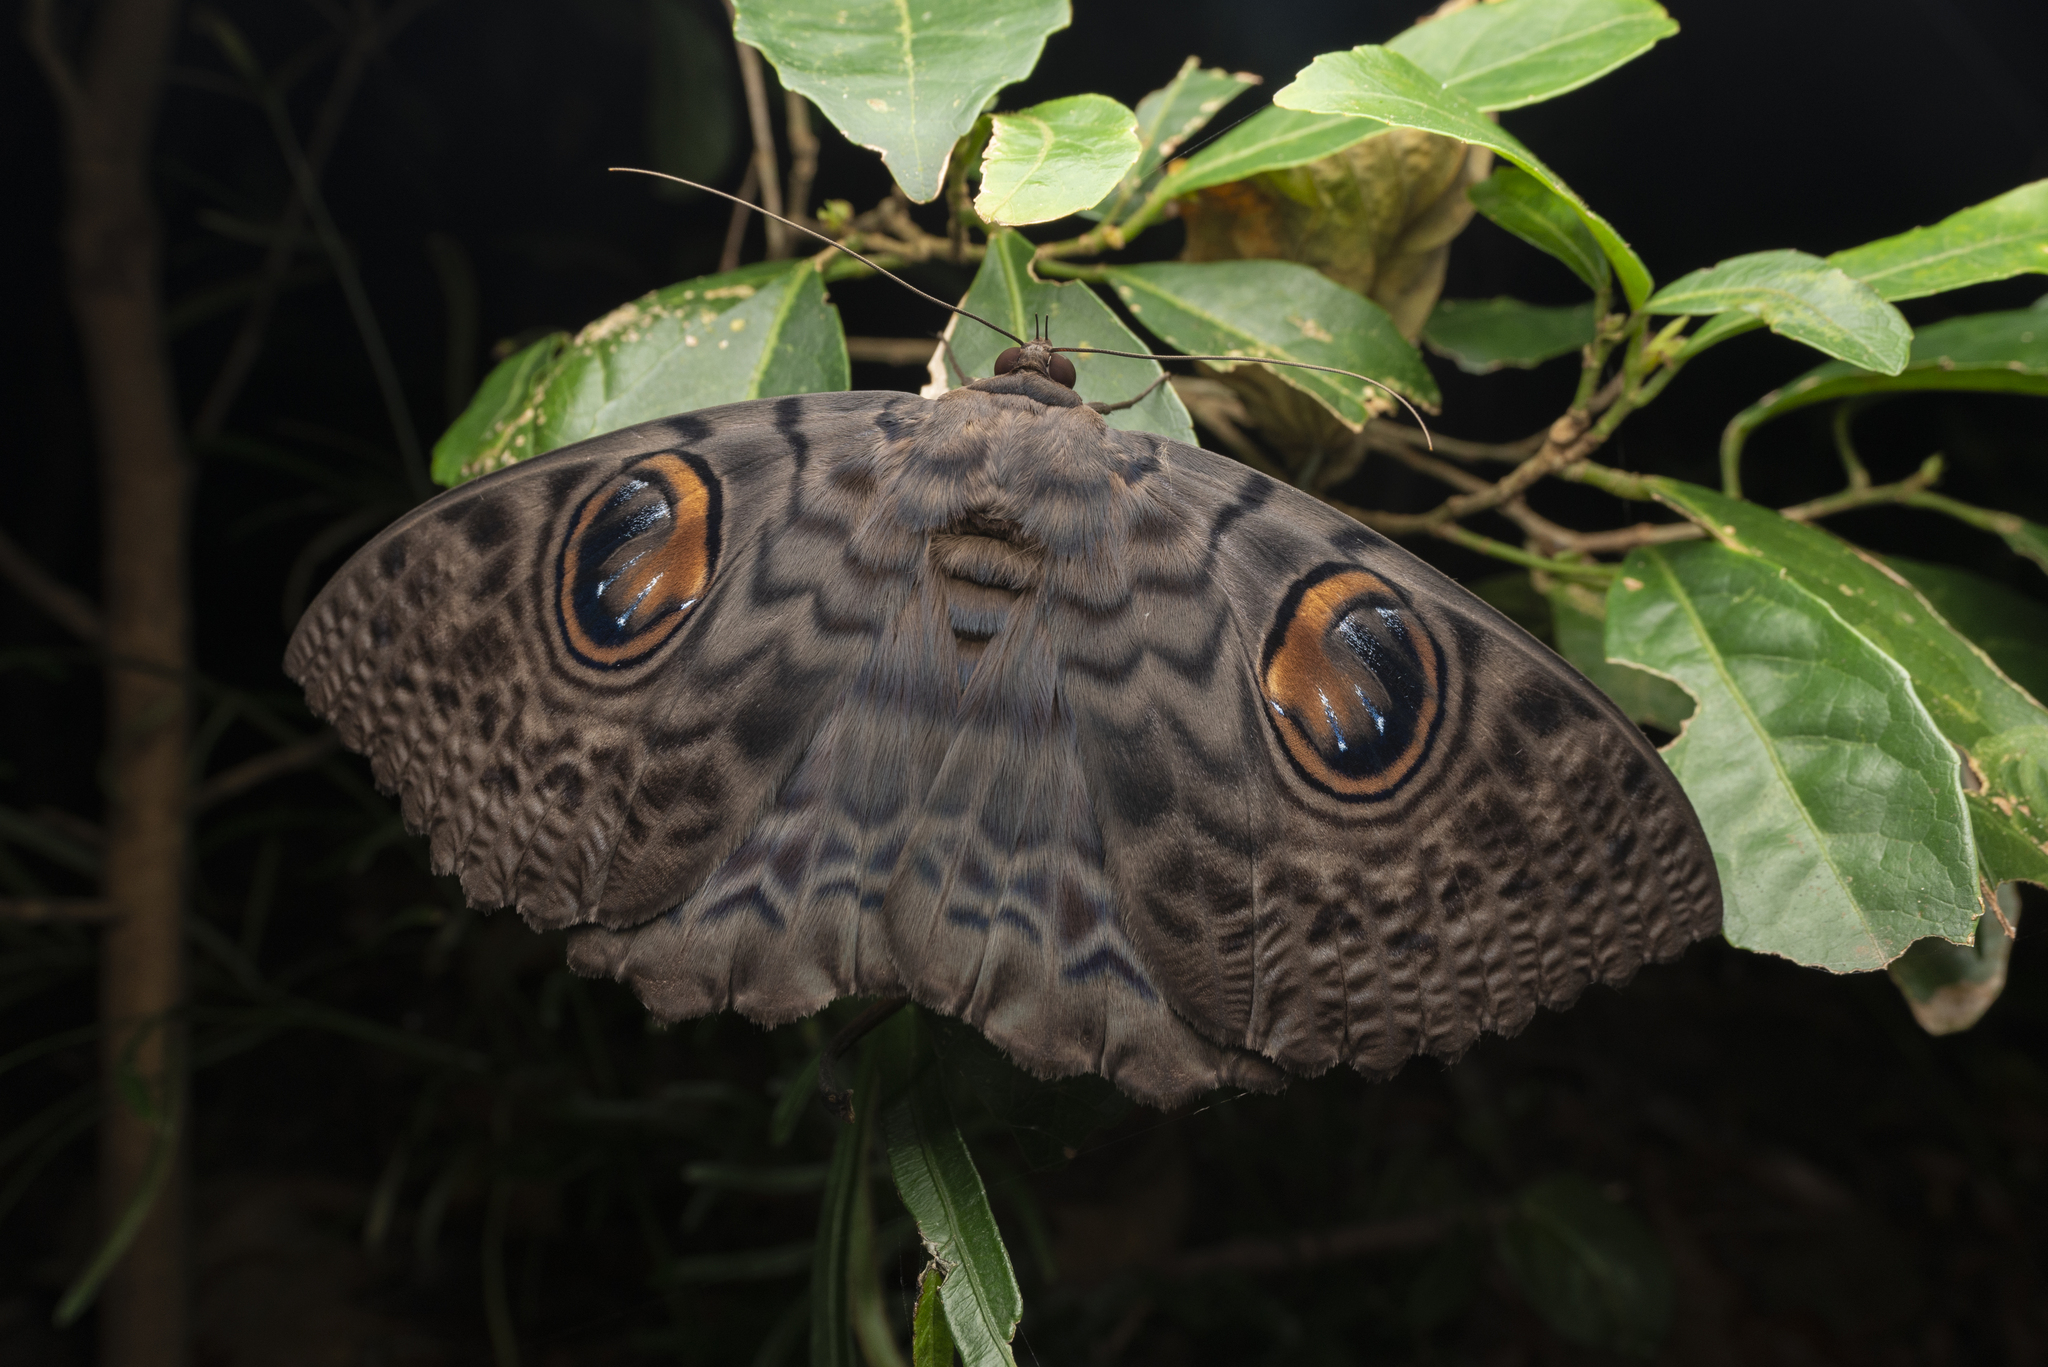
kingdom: Animalia
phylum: Arthropoda
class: Insecta
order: Lepidoptera
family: Erebidae
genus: Erebus
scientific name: Erebus macrops
